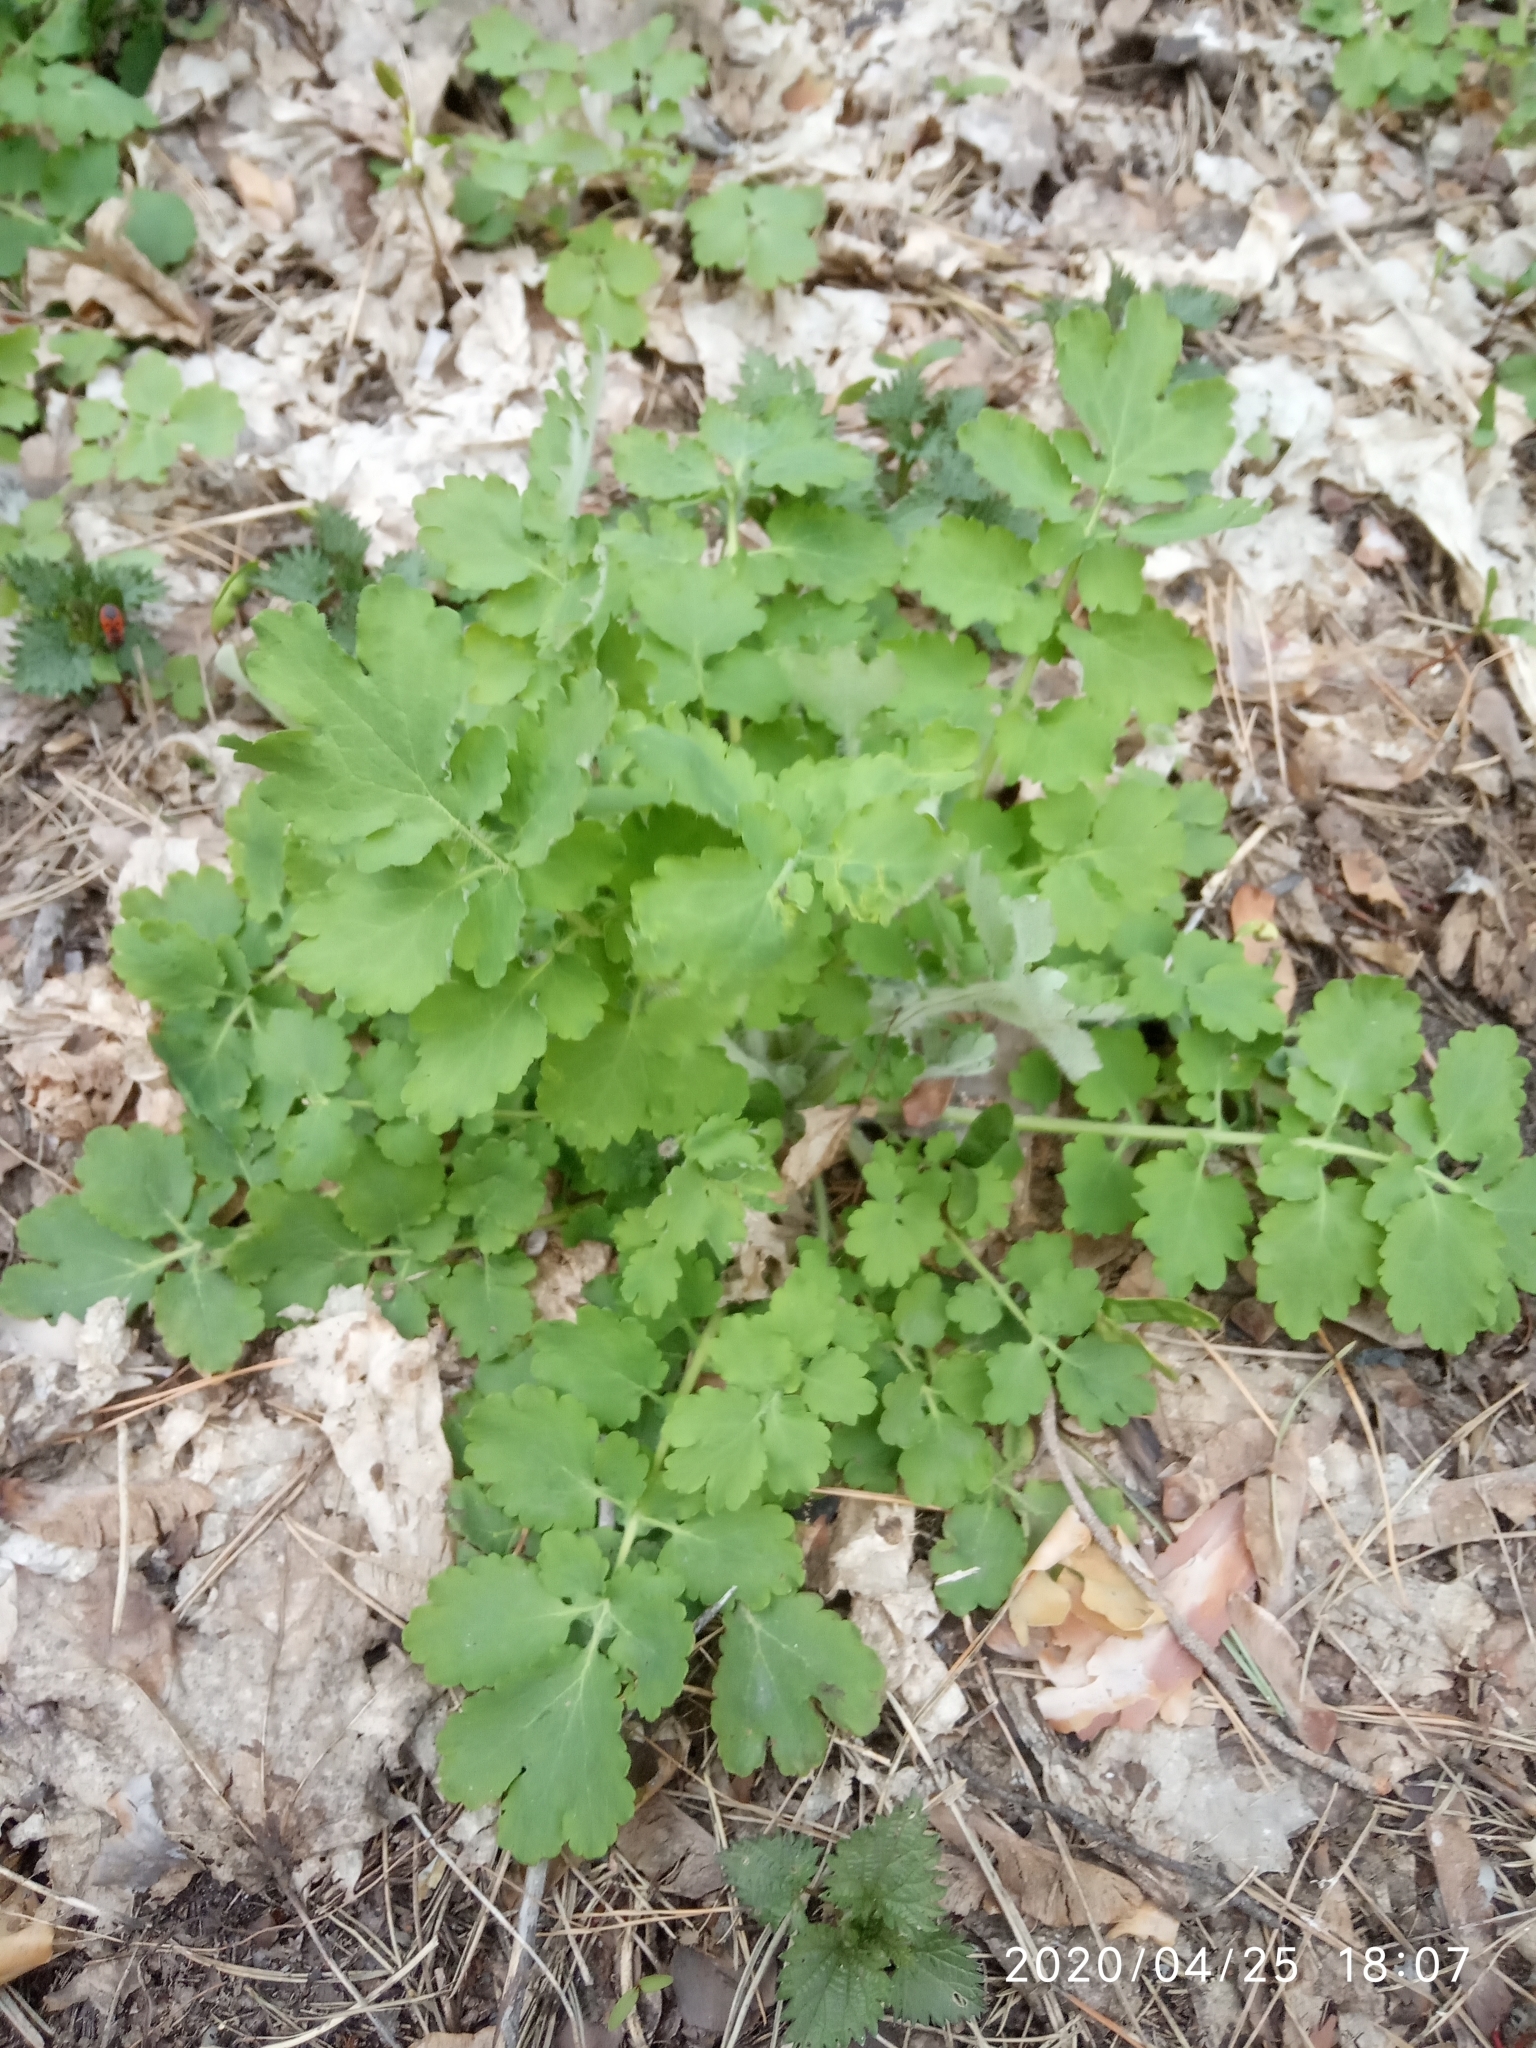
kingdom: Plantae
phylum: Tracheophyta
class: Magnoliopsida
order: Ranunculales
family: Papaveraceae
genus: Chelidonium
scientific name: Chelidonium majus
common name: Greater celandine
